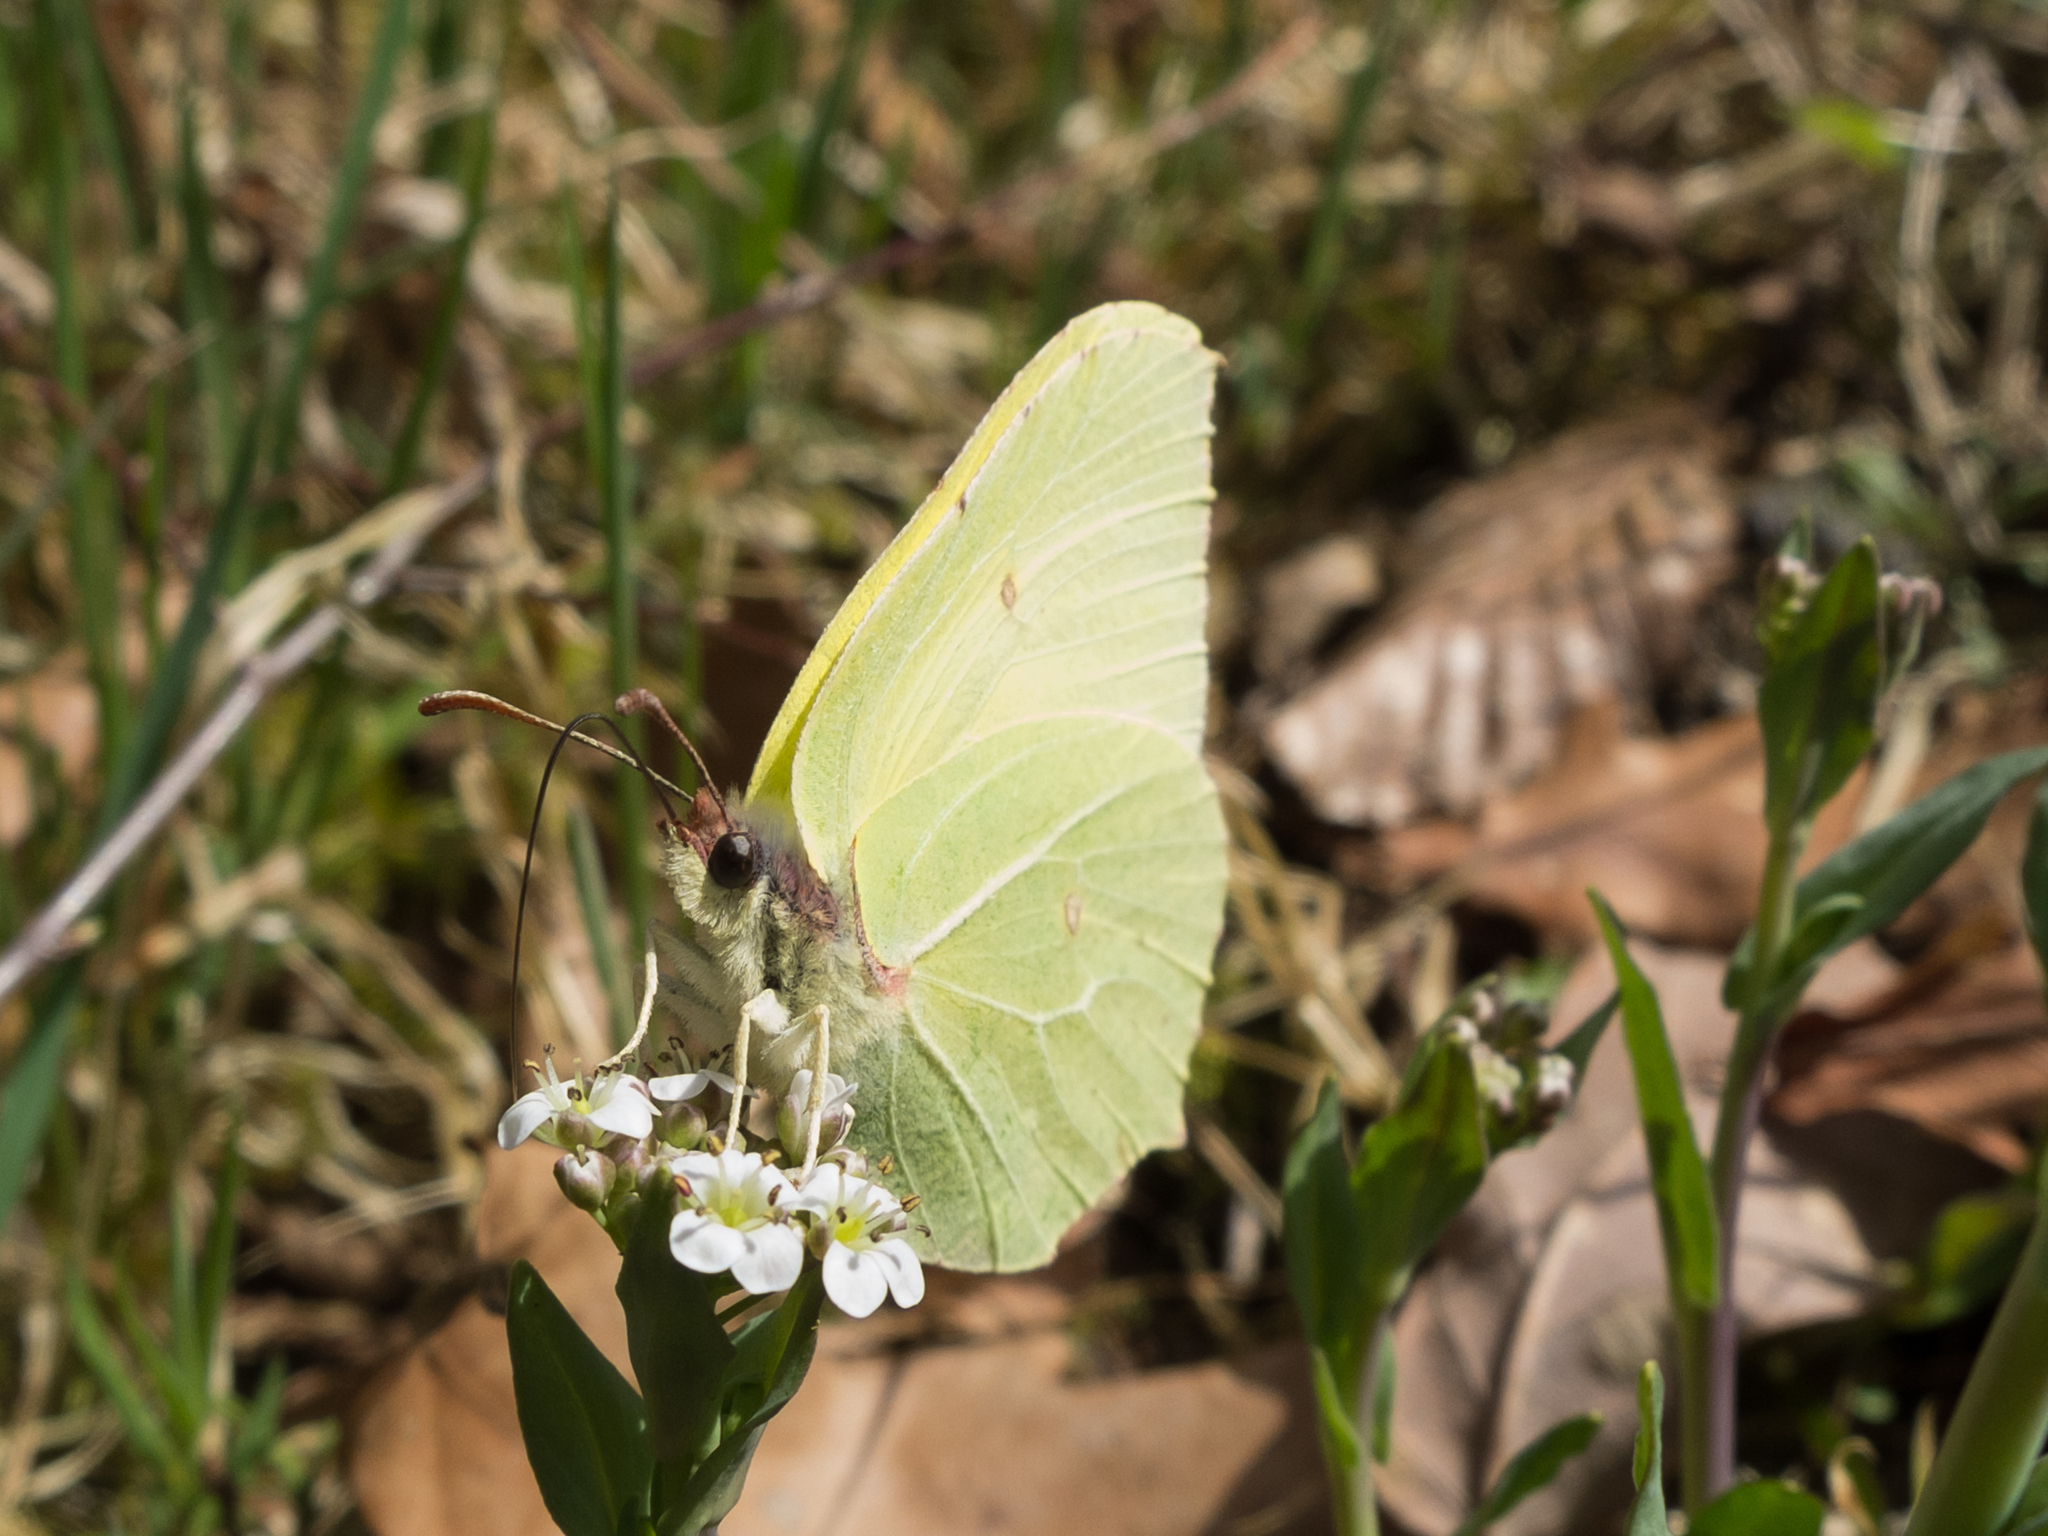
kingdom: Animalia
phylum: Arthropoda
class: Insecta
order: Lepidoptera
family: Pieridae
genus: Gonepteryx
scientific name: Gonepteryx rhamni
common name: Brimstone
